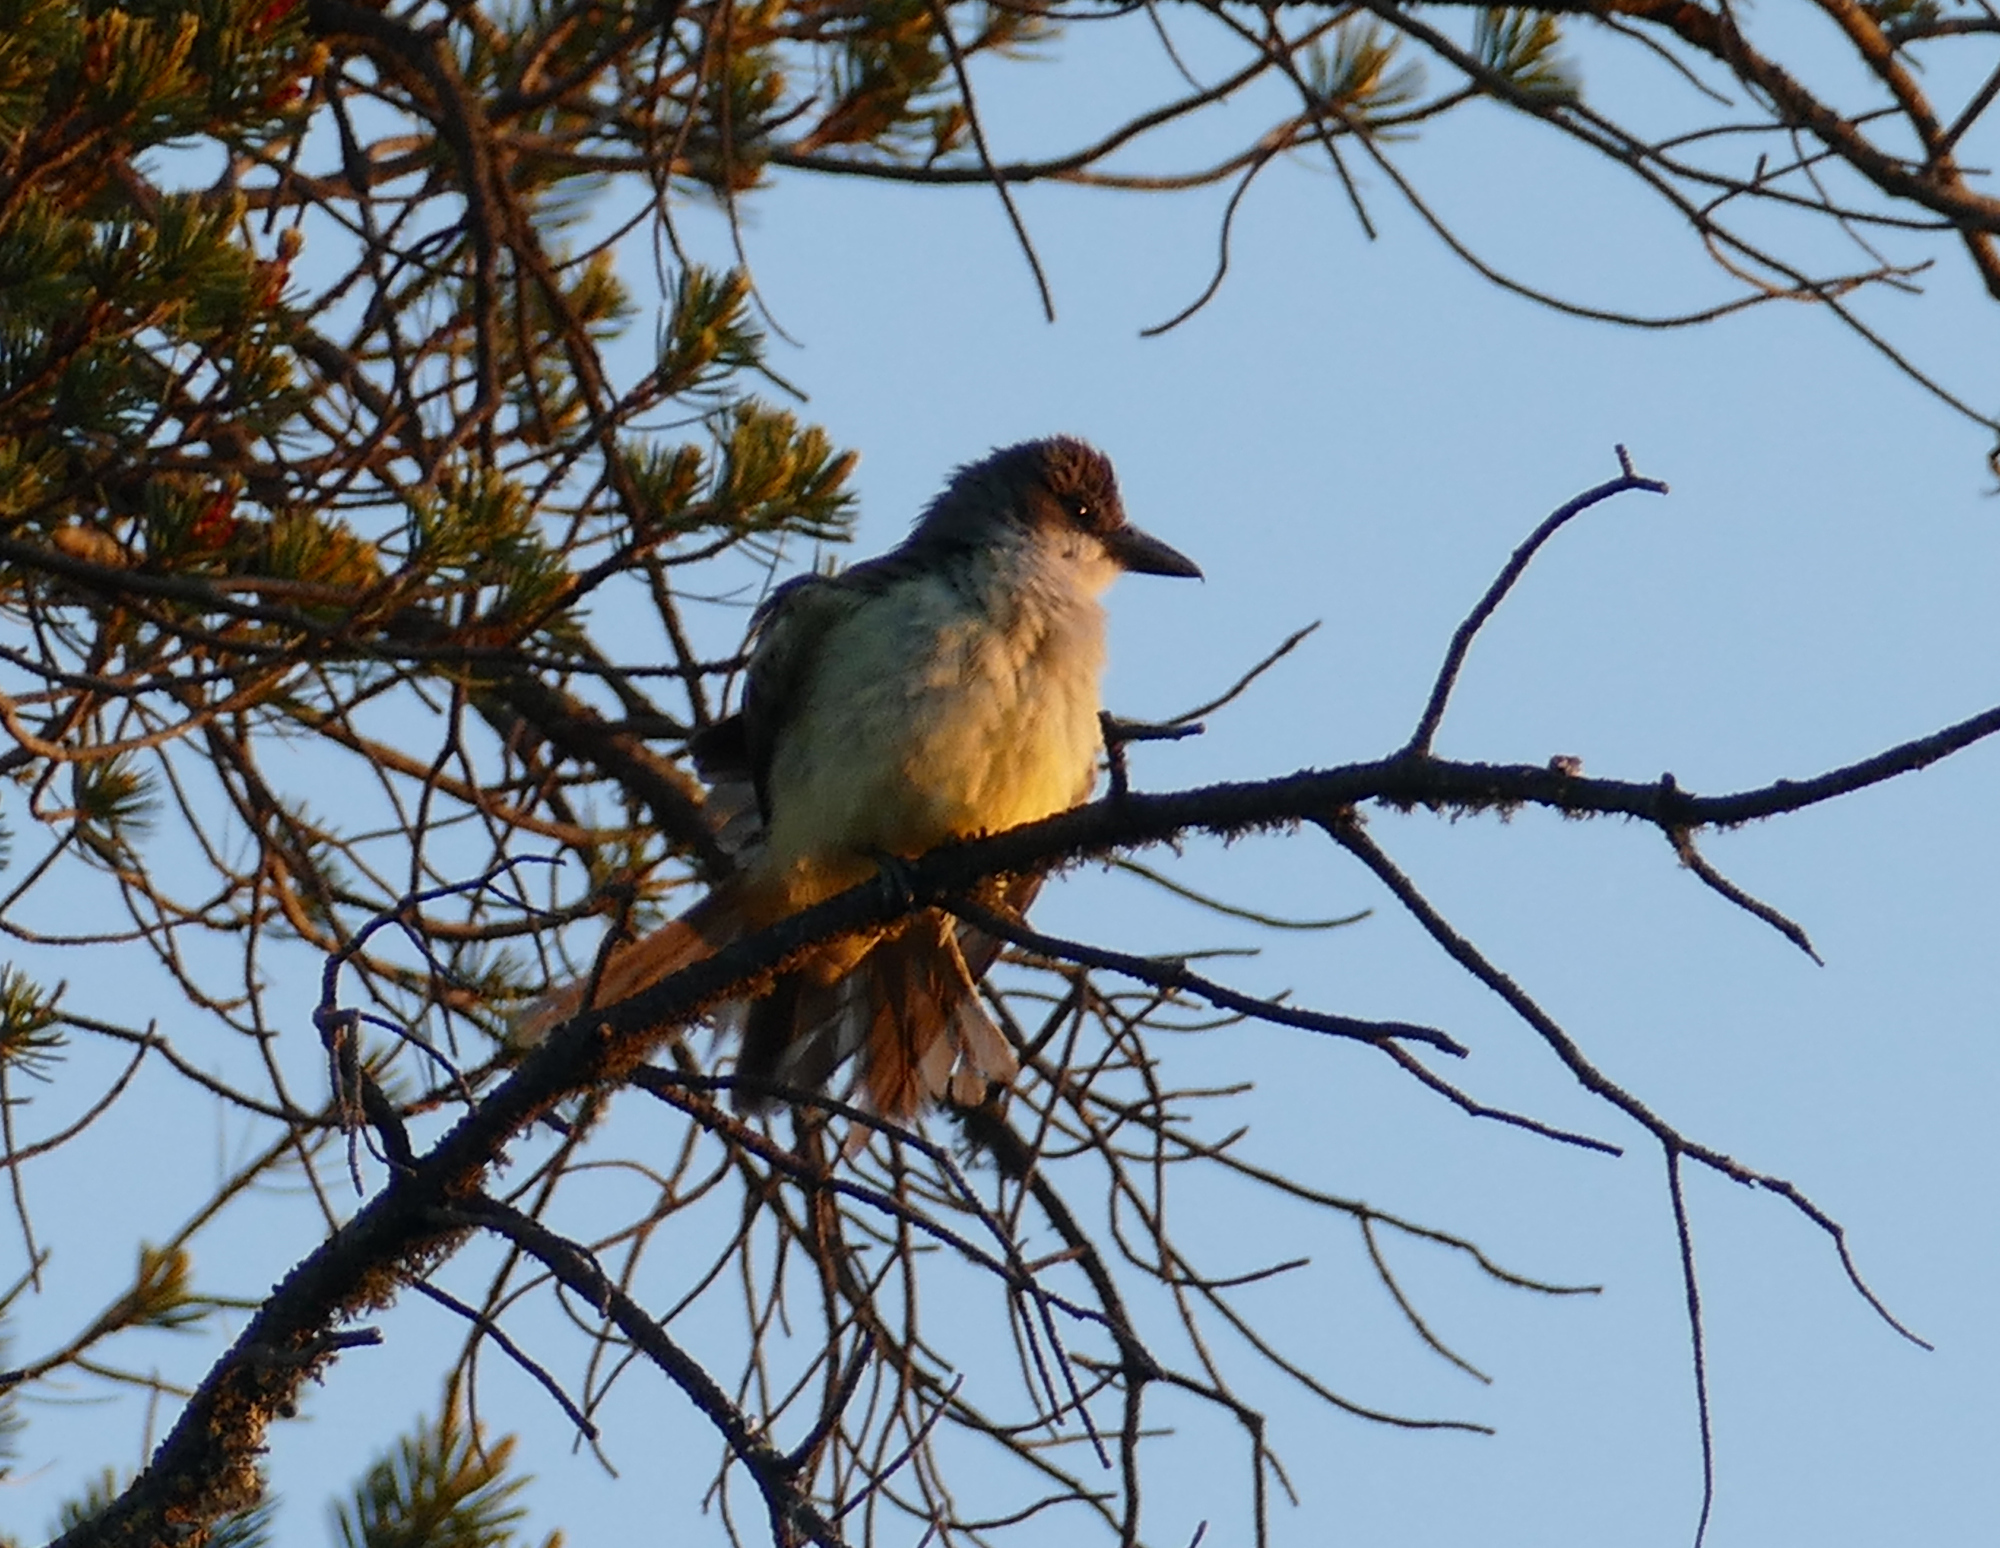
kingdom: Animalia
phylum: Chordata
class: Aves
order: Passeriformes
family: Tyrannidae
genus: Tyrannus
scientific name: Tyrannus crassirostris
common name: Thick-billed kingbird
